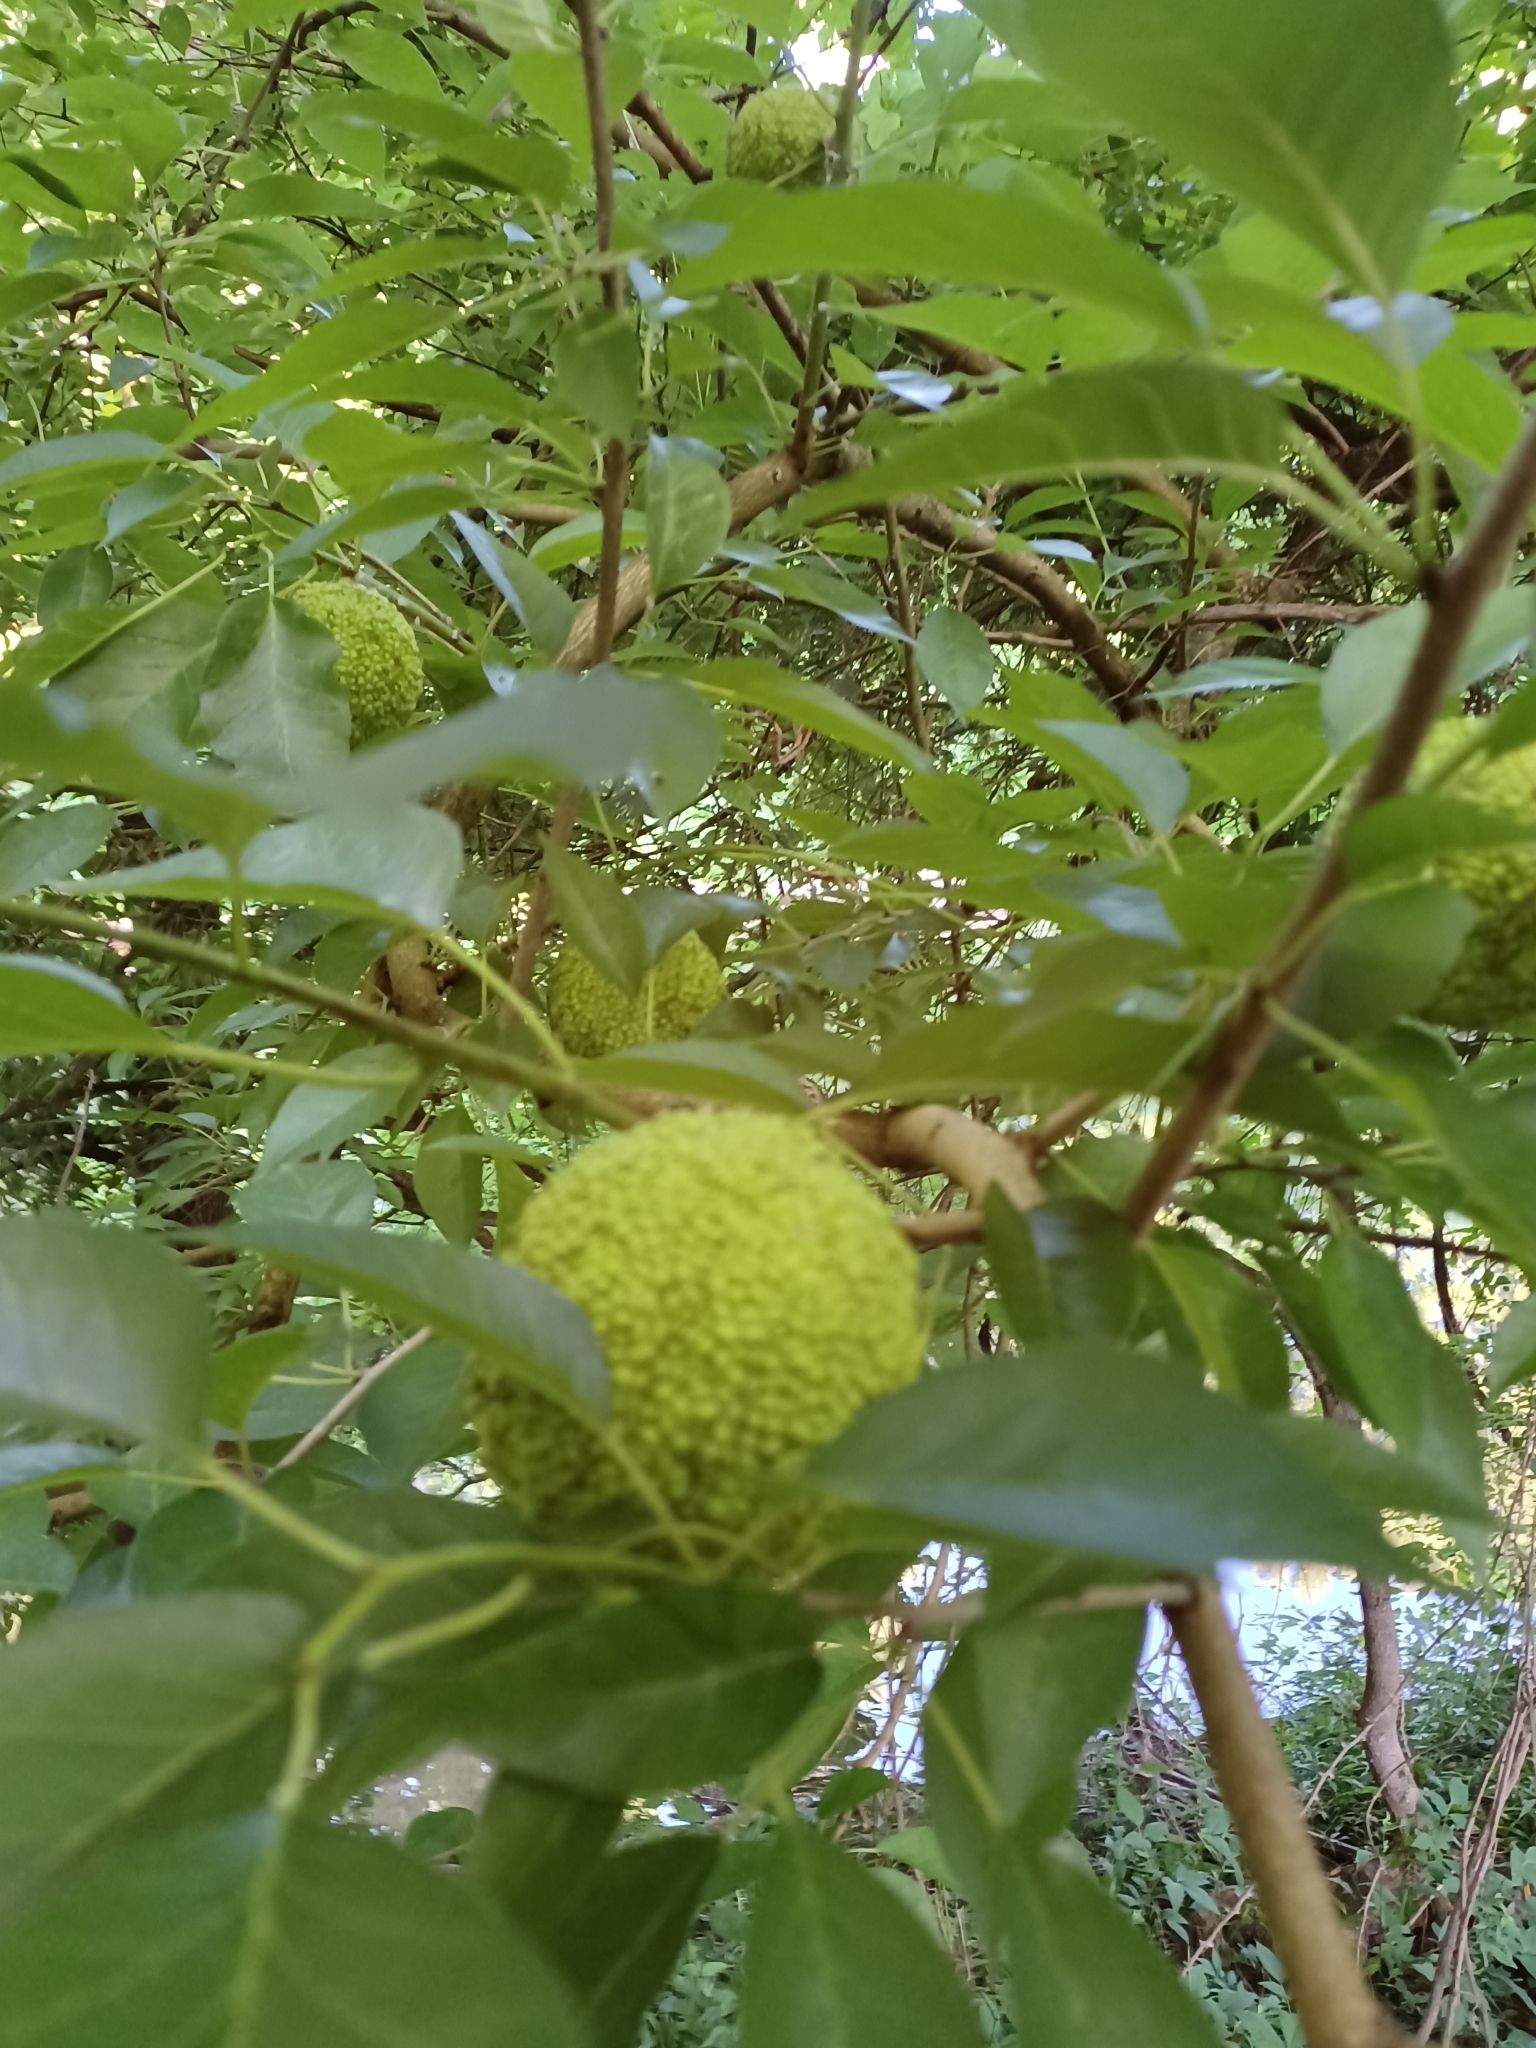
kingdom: Plantae
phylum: Tracheophyta
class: Magnoliopsida
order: Rosales
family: Moraceae
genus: Maclura
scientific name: Maclura pomifera
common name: Osage-orange
